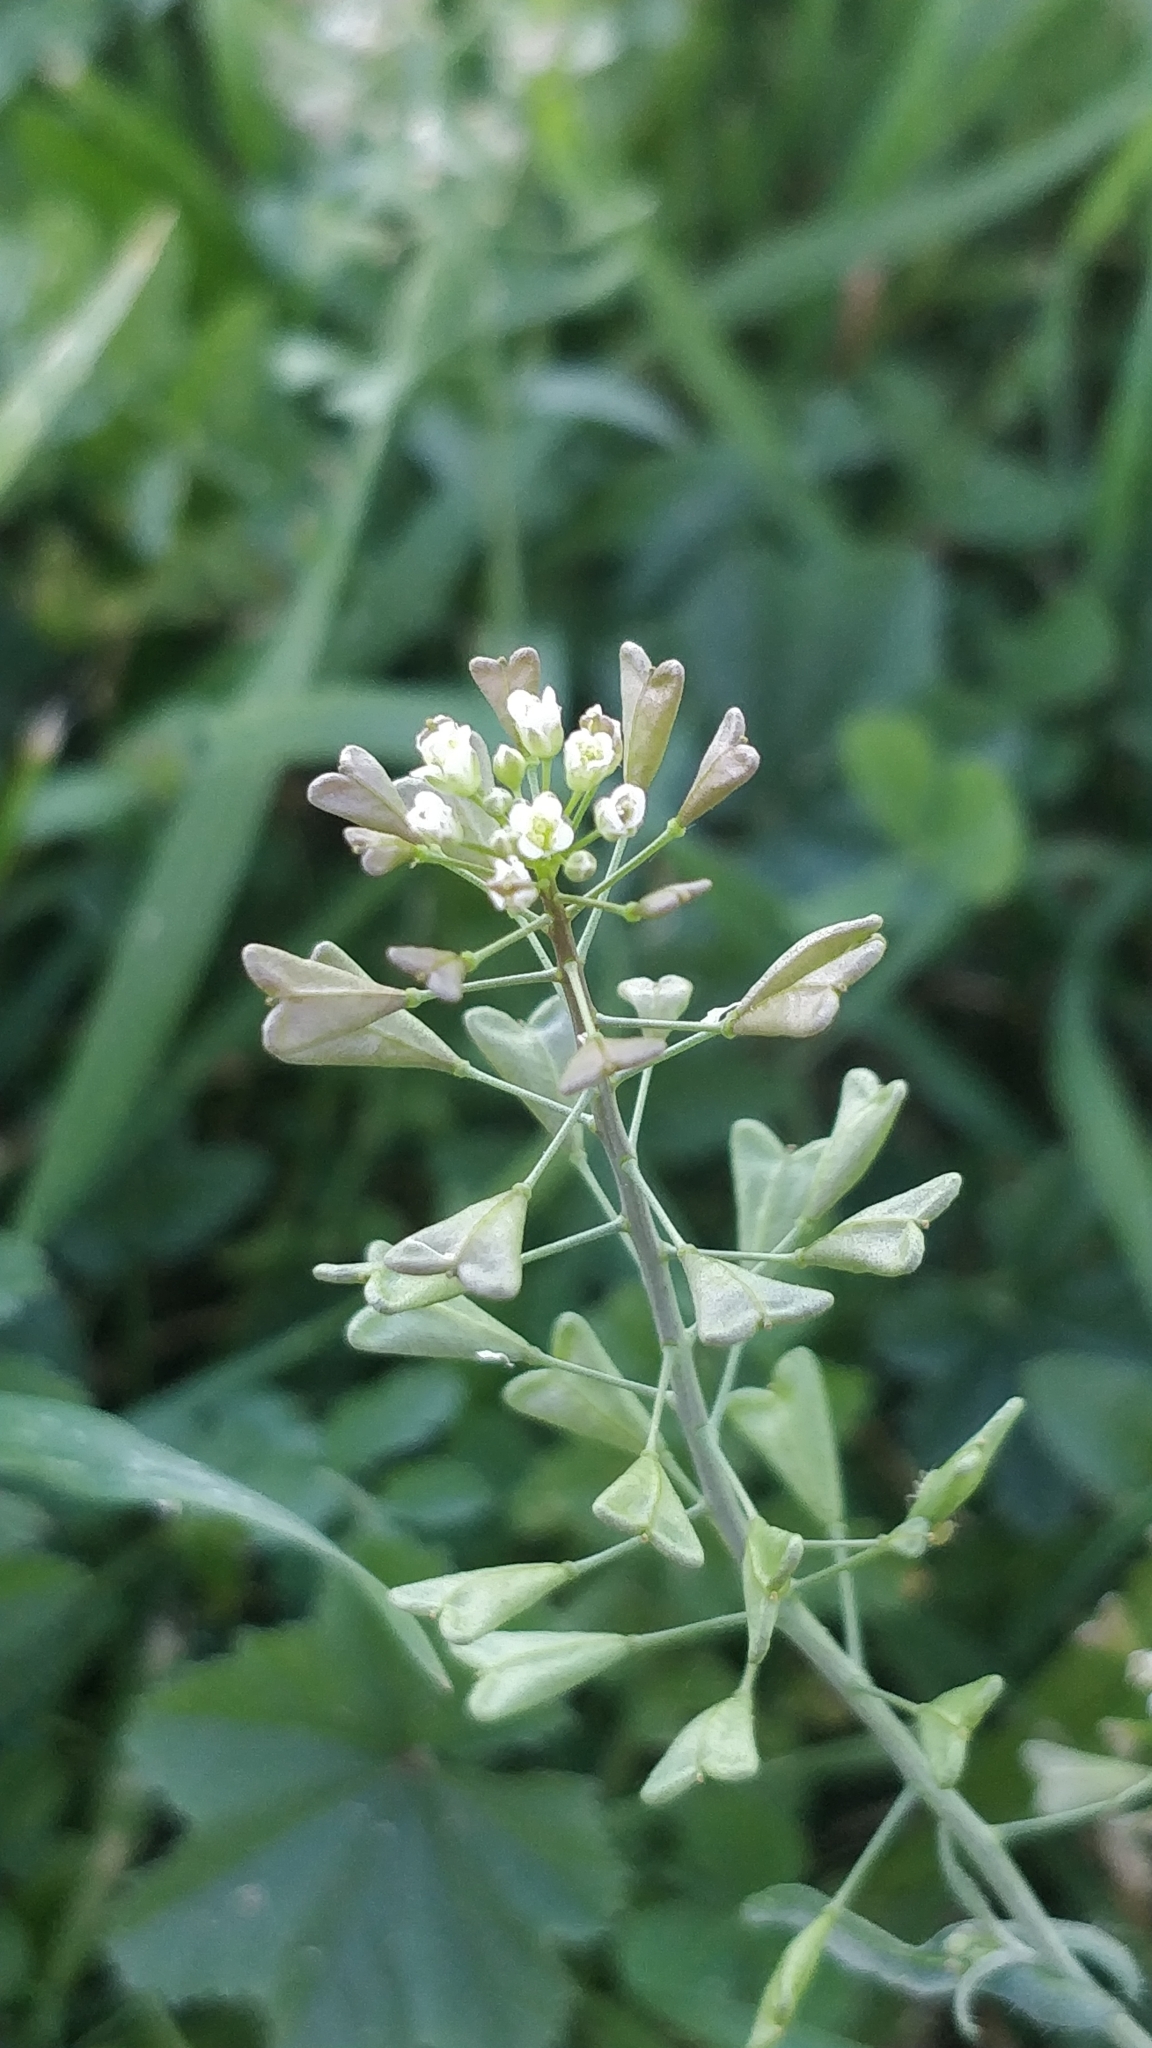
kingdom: Plantae
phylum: Tracheophyta
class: Magnoliopsida
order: Brassicales
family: Brassicaceae
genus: Capsella
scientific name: Capsella bursa-pastoris
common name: Shepherd's purse
